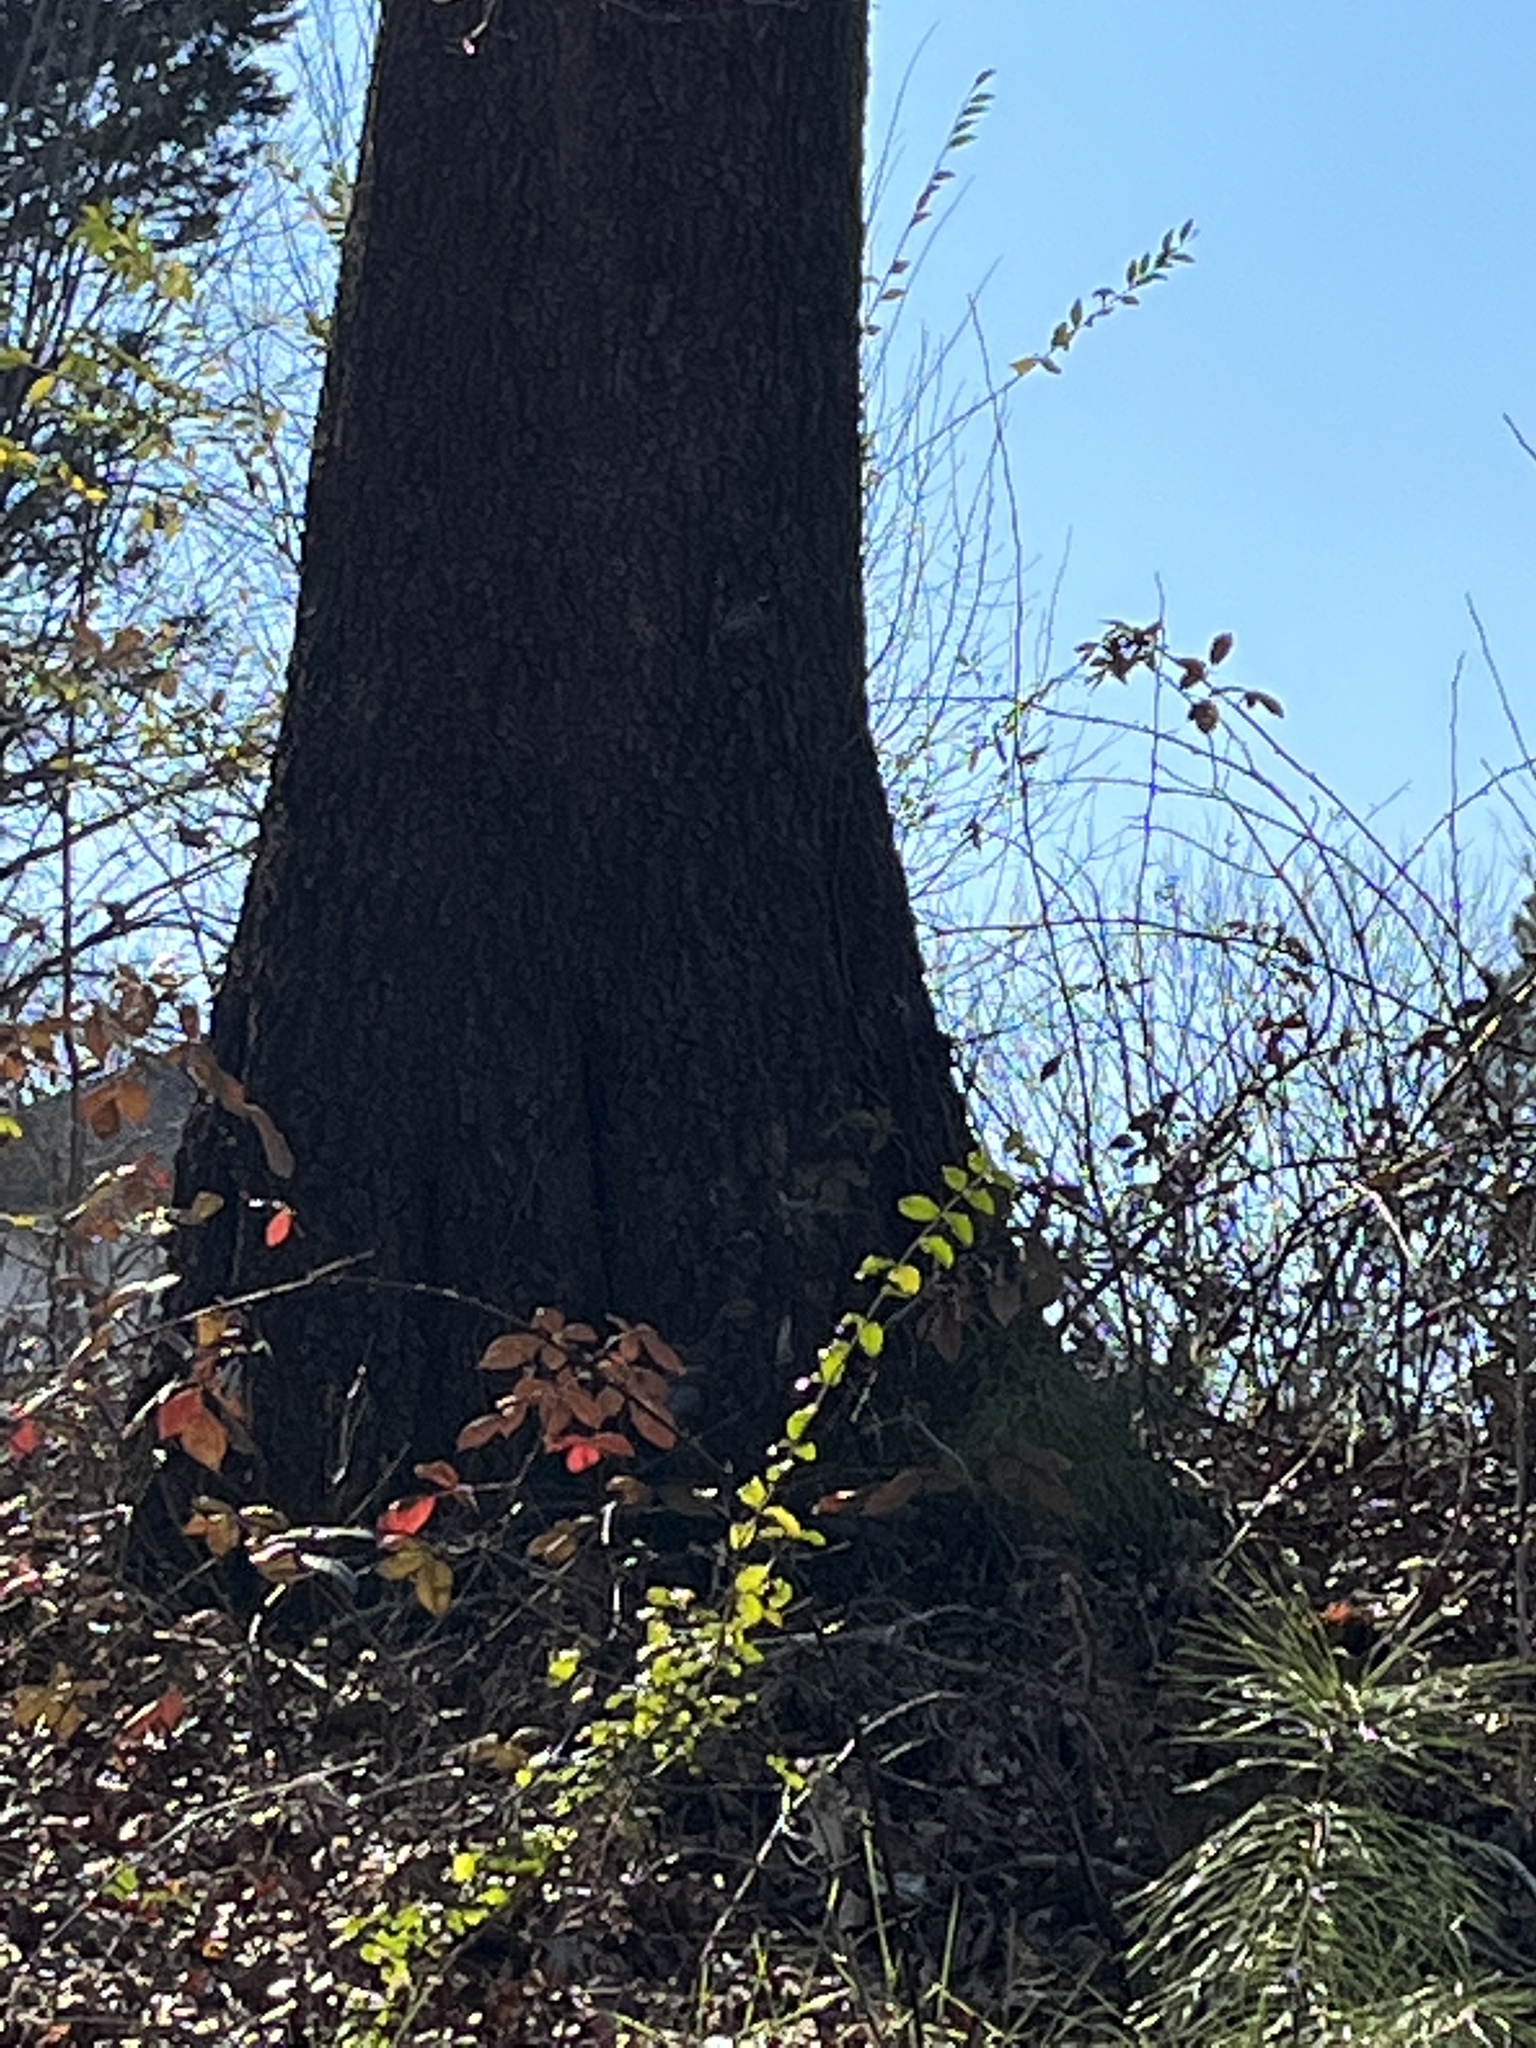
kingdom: Animalia
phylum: Chordata
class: Aves
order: Passeriformes
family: Sittidae
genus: Sitta
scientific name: Sitta carolinensis
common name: White-breasted nuthatch
